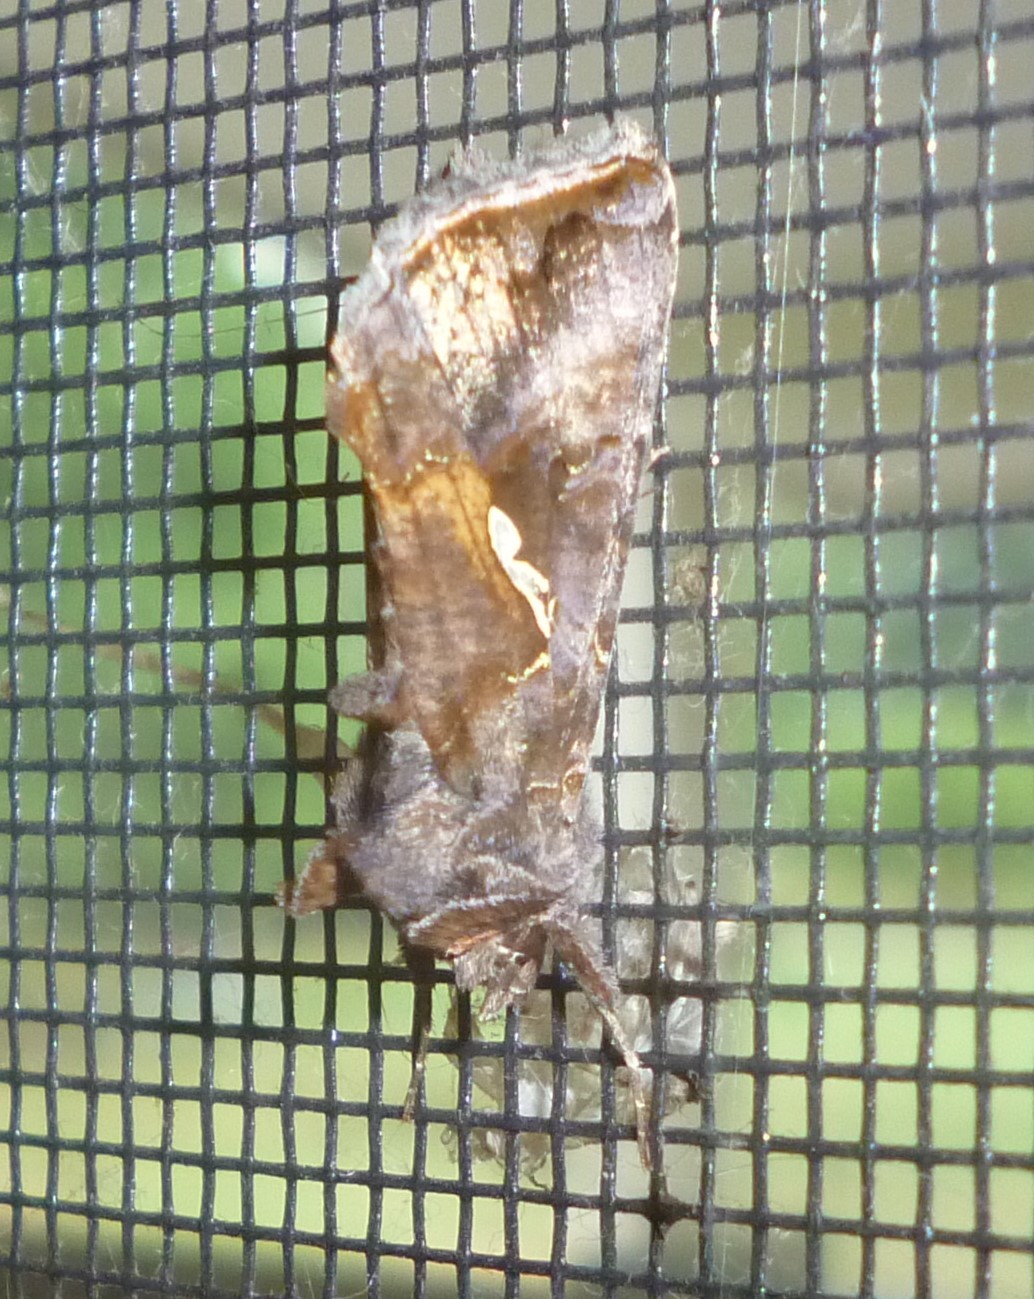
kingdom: Animalia
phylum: Arthropoda
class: Insecta
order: Lepidoptera
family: Noctuidae
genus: Autographa
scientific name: Autographa precationis
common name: Common looper moth
